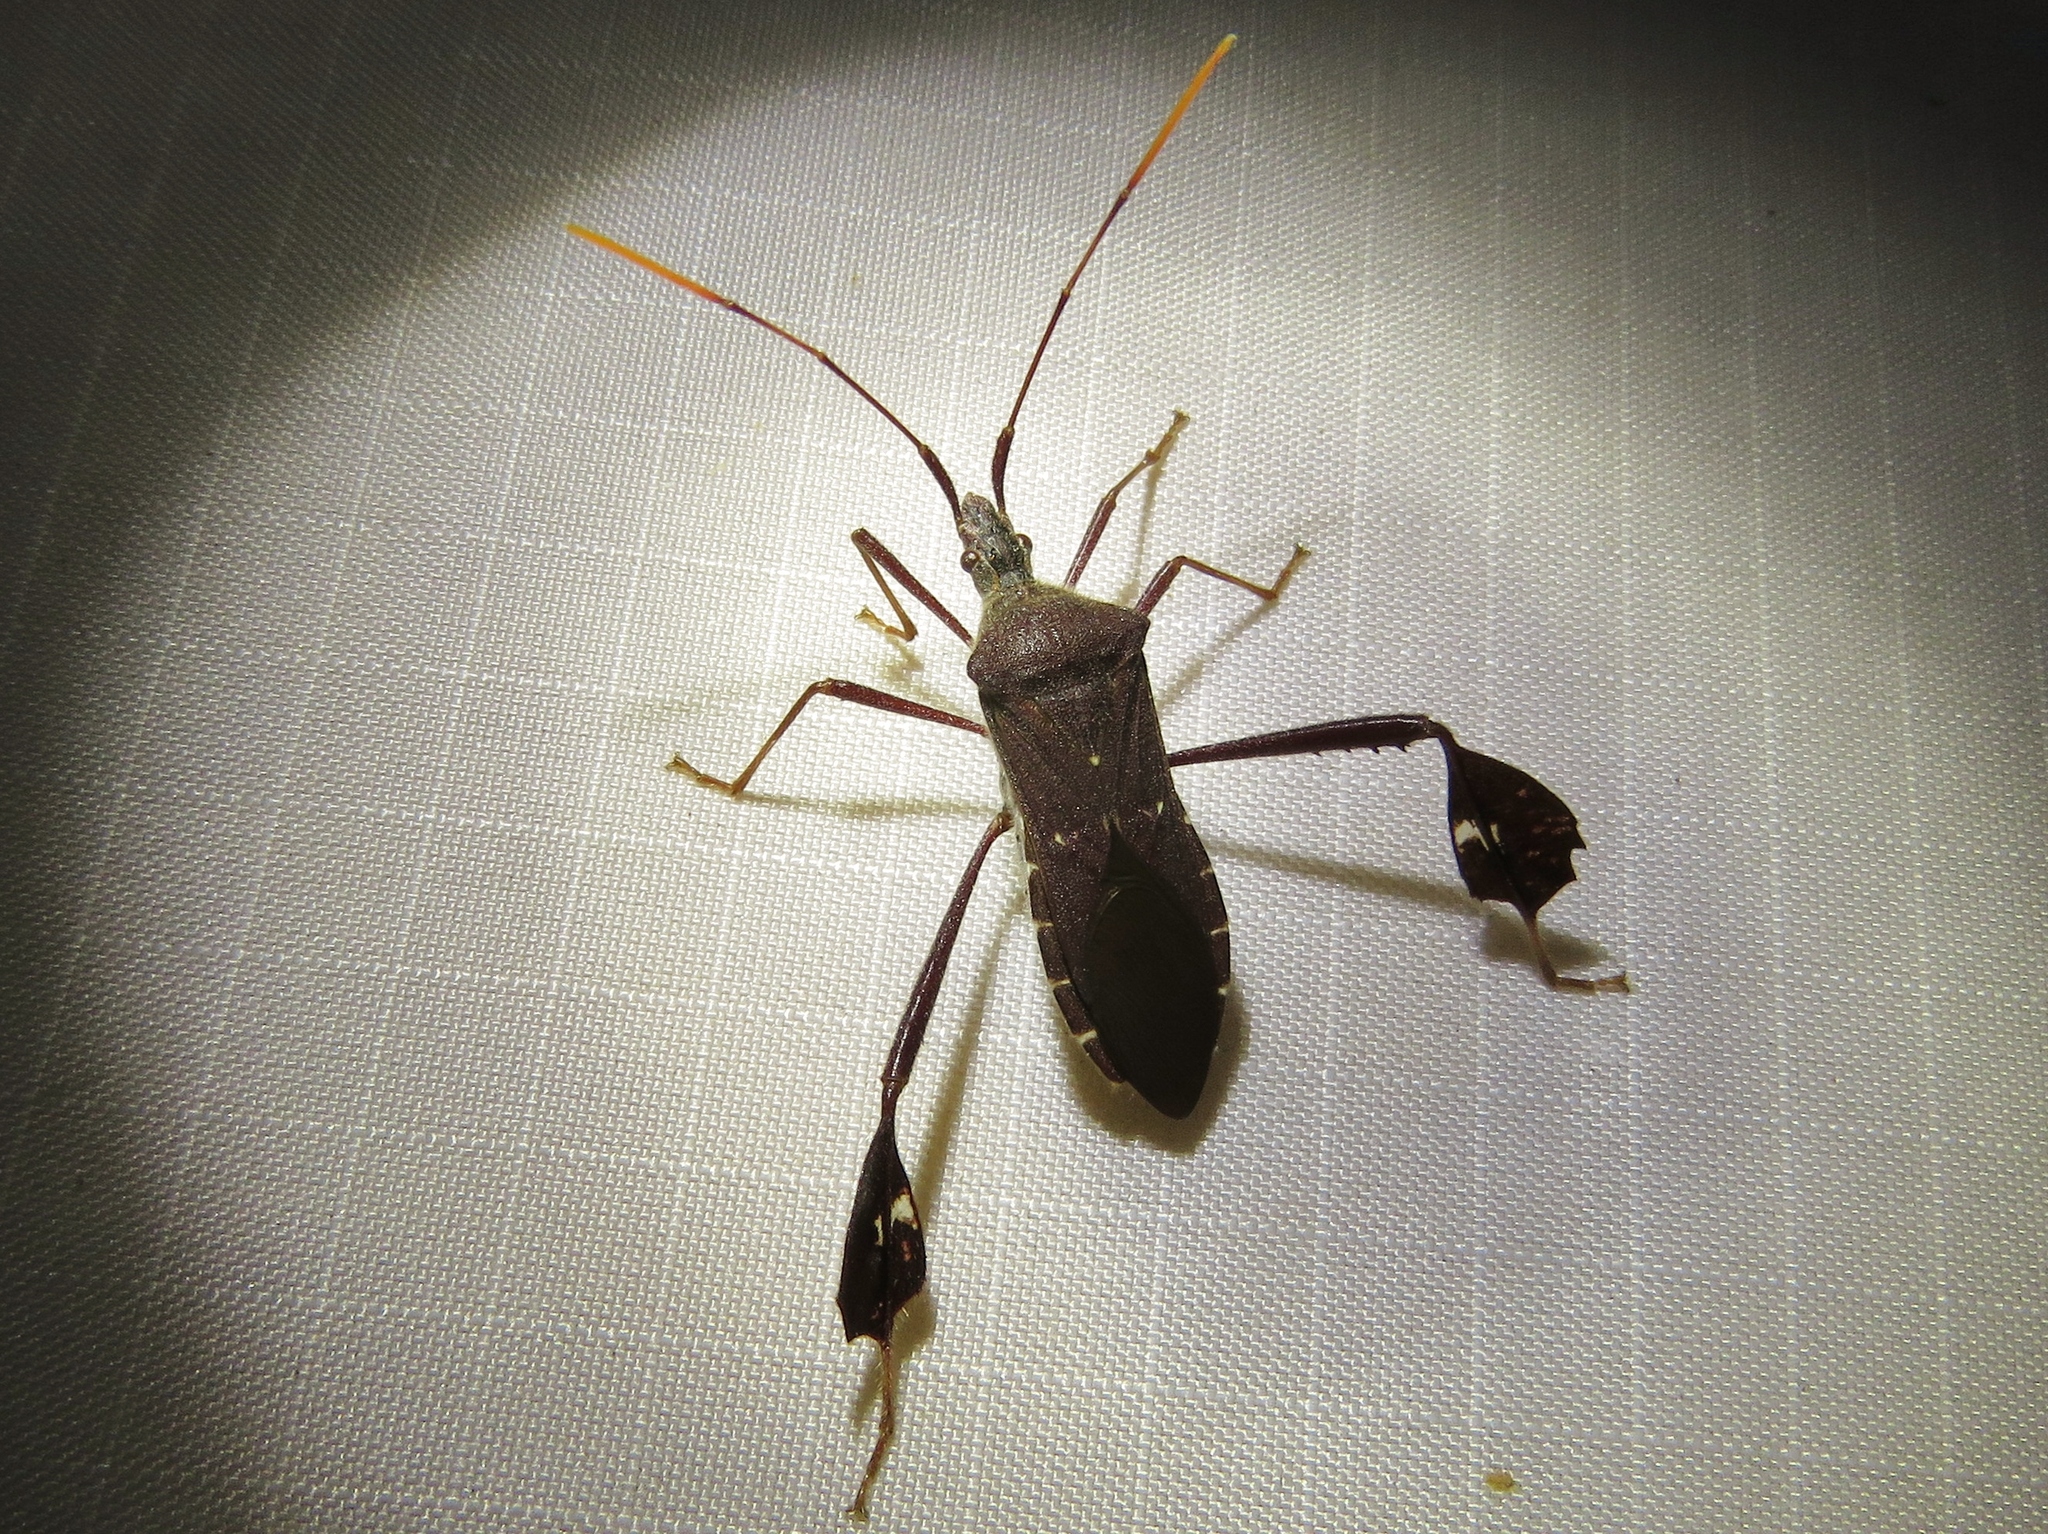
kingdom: Animalia
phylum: Arthropoda
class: Insecta
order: Hemiptera
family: Coreidae
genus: Leptoglossus
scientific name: Leptoglossus oppositus
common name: Northern leaf-footed bug
